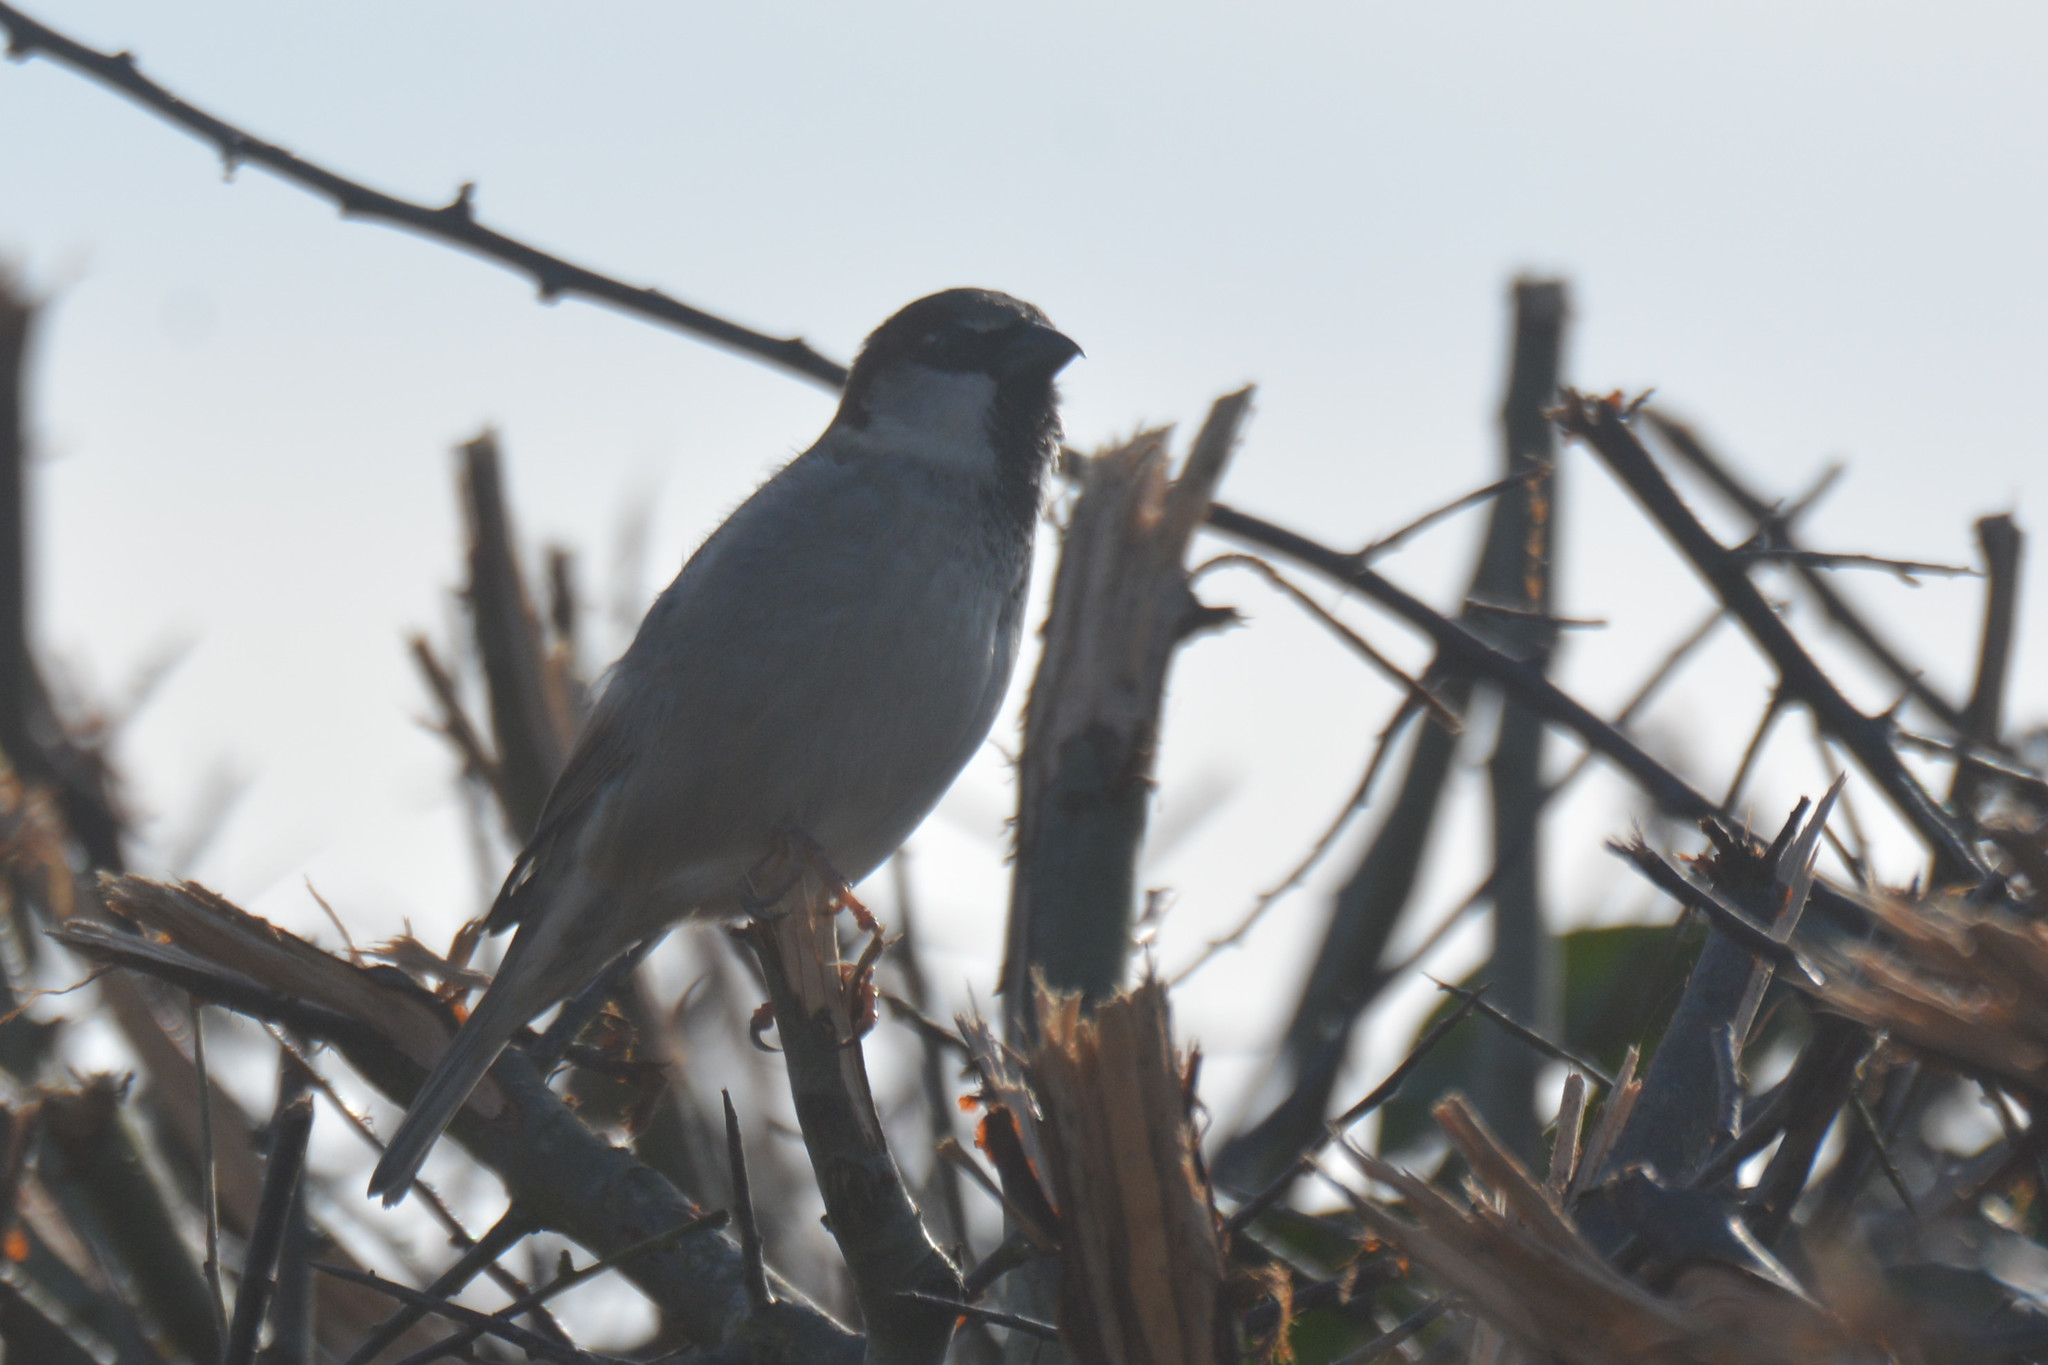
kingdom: Animalia
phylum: Chordata
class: Aves
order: Passeriformes
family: Passeridae
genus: Passer
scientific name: Passer domesticus
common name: House sparrow
